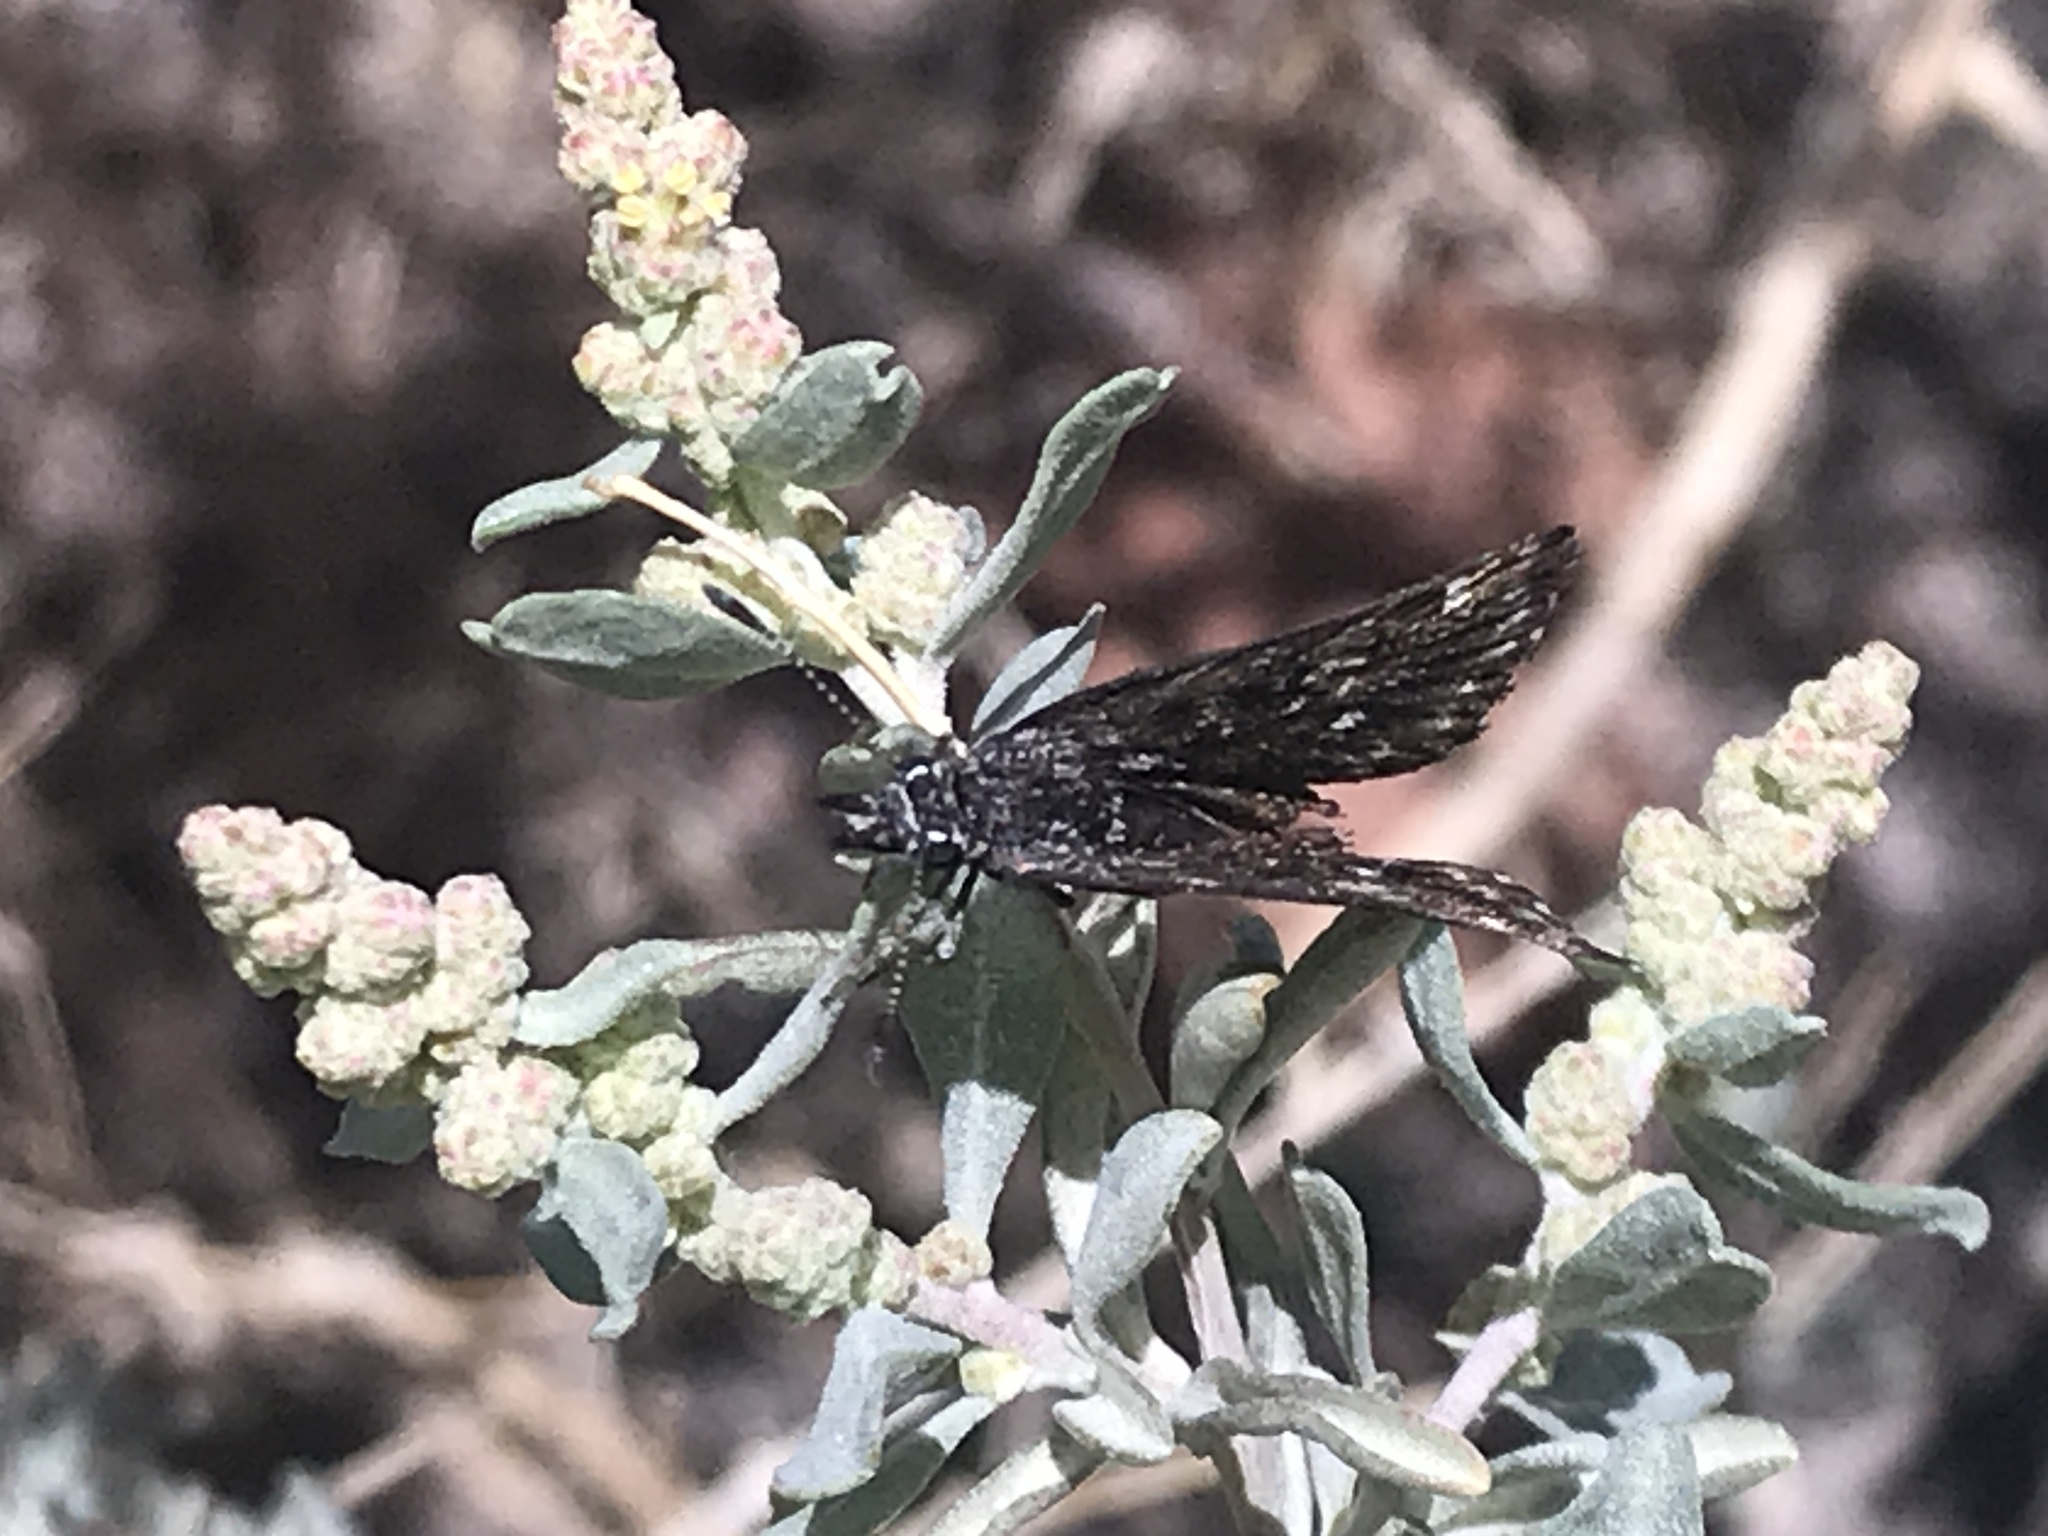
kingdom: Animalia
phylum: Arthropoda
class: Insecta
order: Lepidoptera
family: Hesperiidae
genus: Hesperopsis
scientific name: Hesperopsis alpheus
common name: Saltbush sootywing
